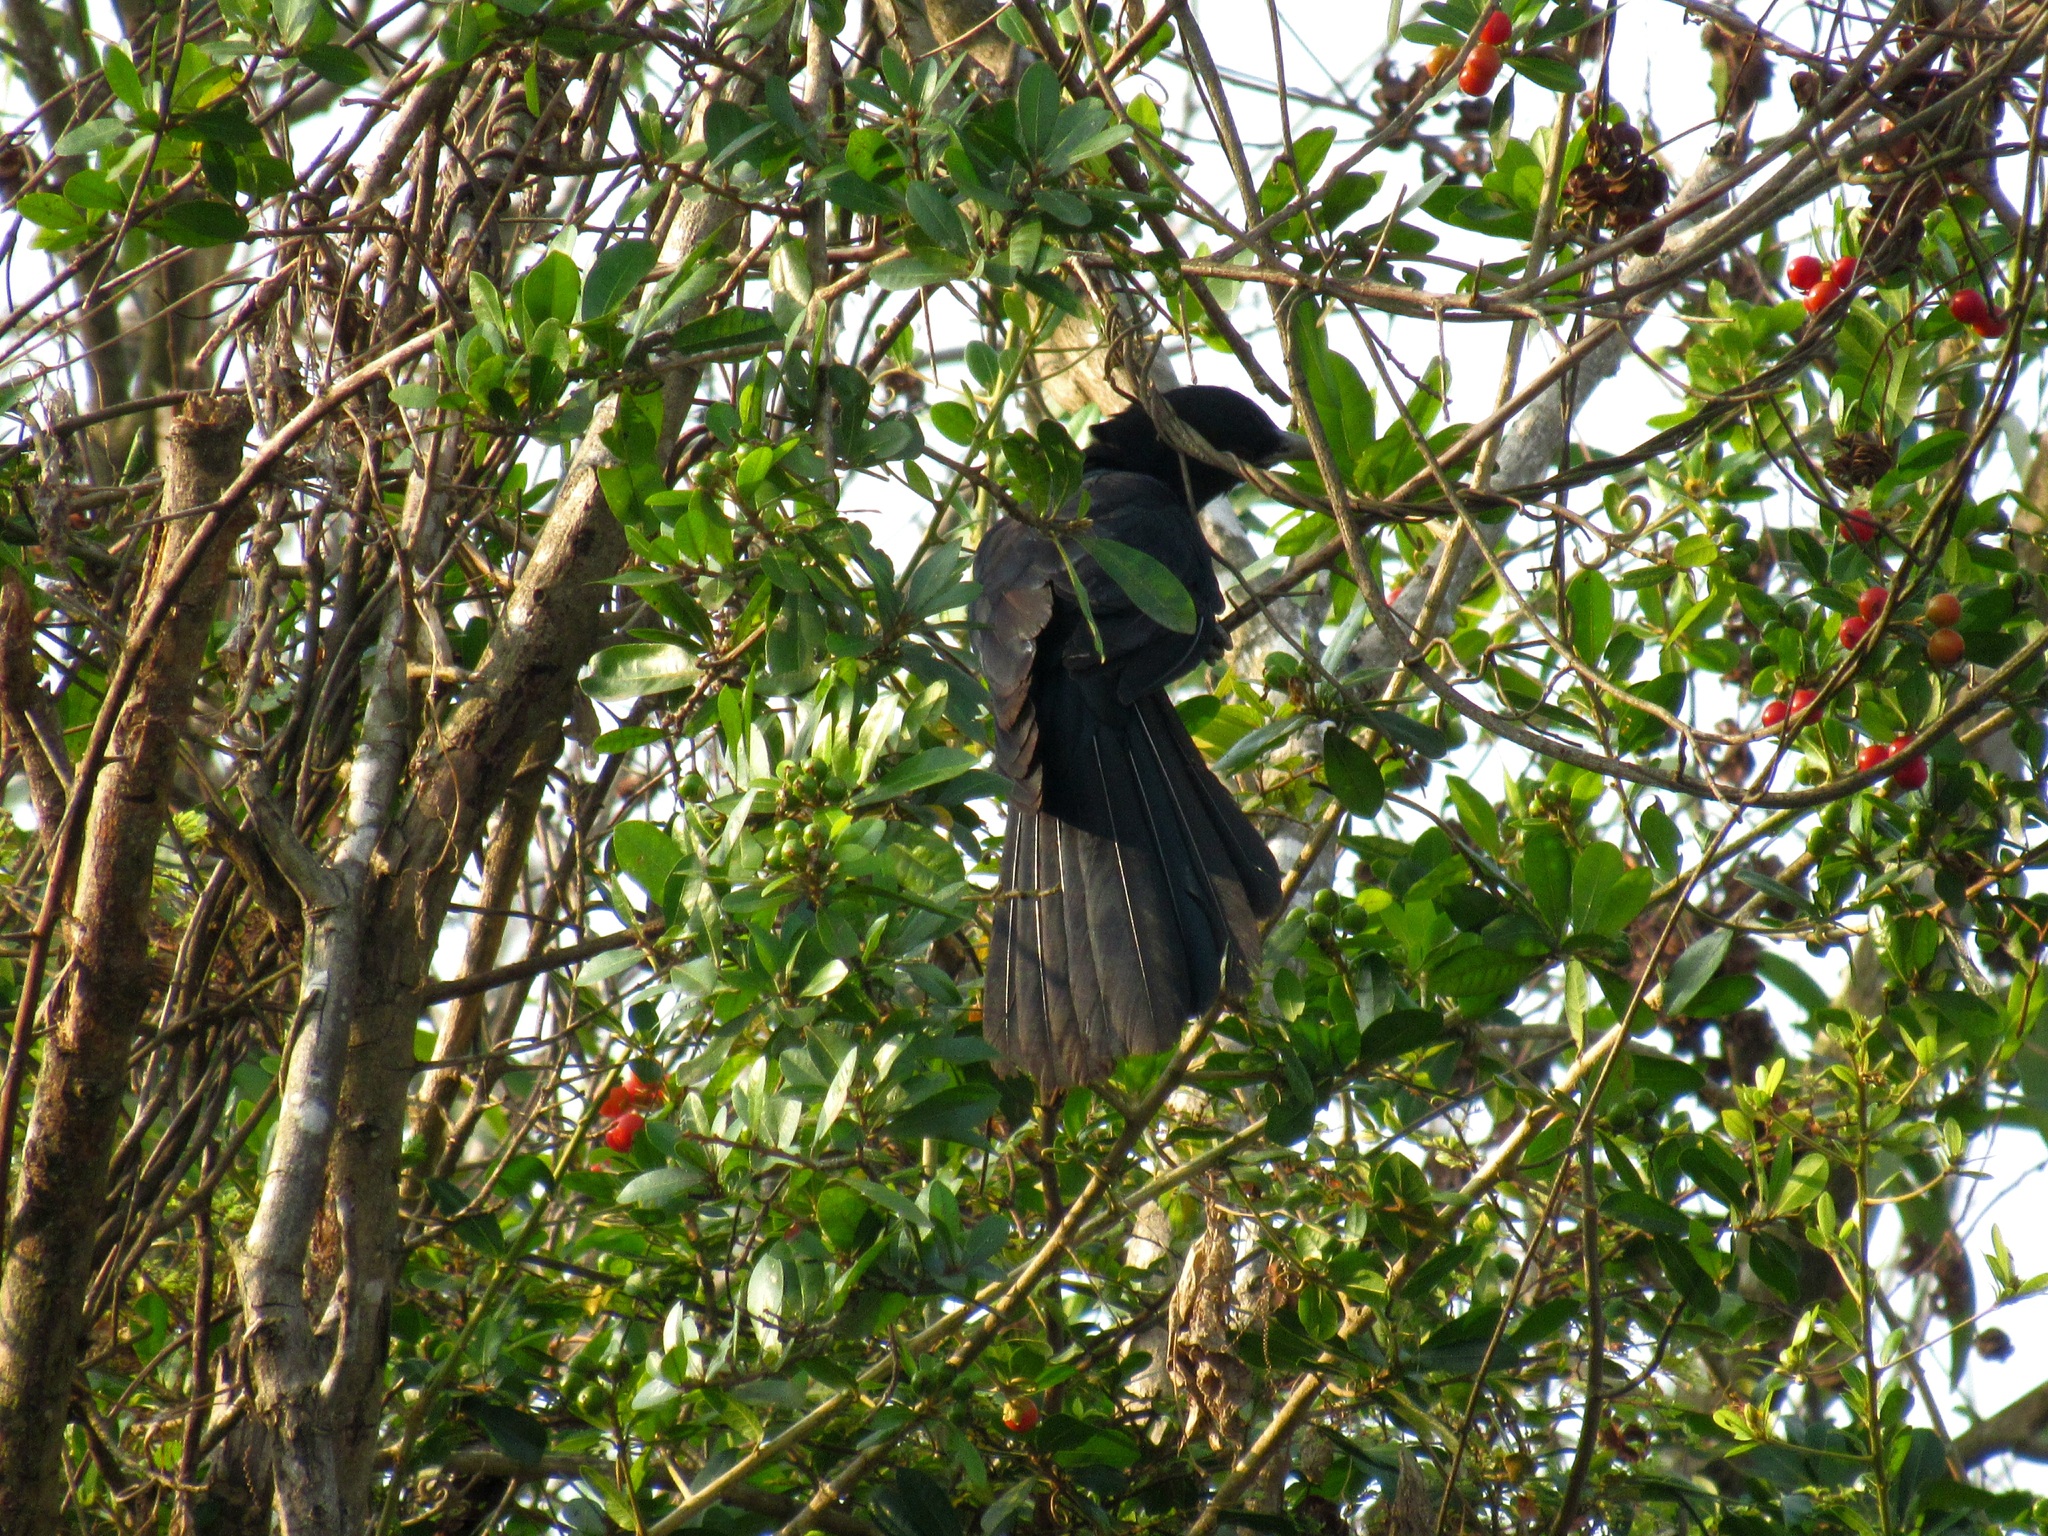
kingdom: Animalia
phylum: Chordata
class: Aves
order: Cuculiformes
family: Cuculidae
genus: Eudynamys
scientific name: Eudynamys scolopaceus
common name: Asian koel
